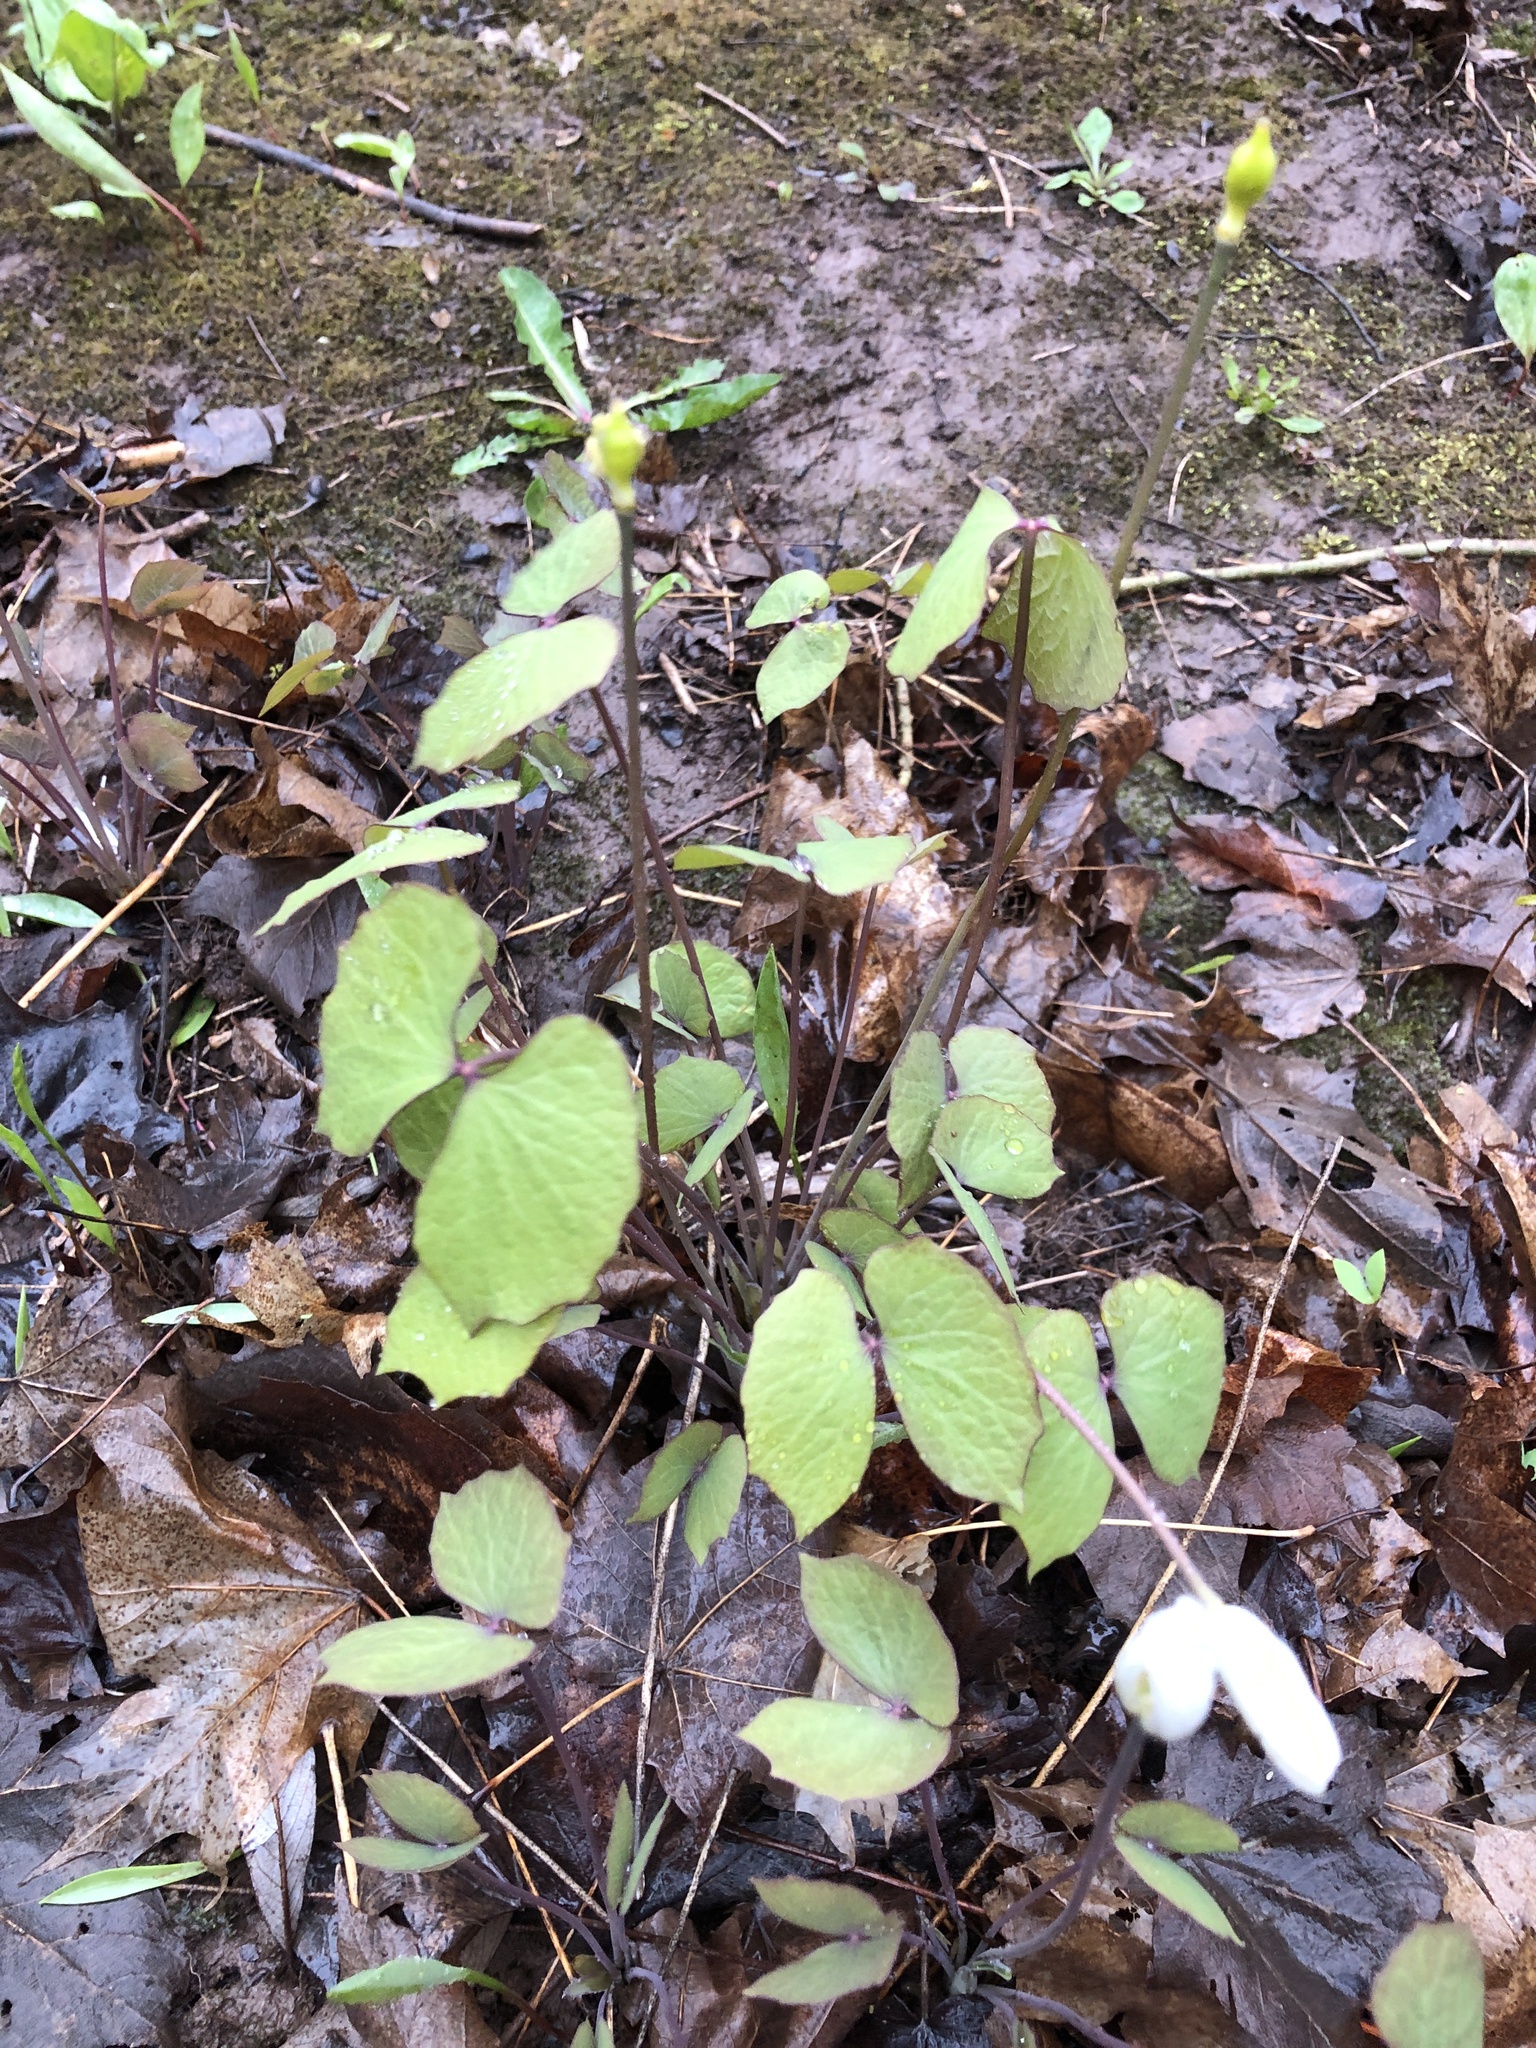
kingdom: Plantae
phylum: Tracheophyta
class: Magnoliopsida
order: Ranunculales
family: Berberidaceae
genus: Jeffersonia
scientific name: Jeffersonia diphylla
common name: Rheumatism-root
